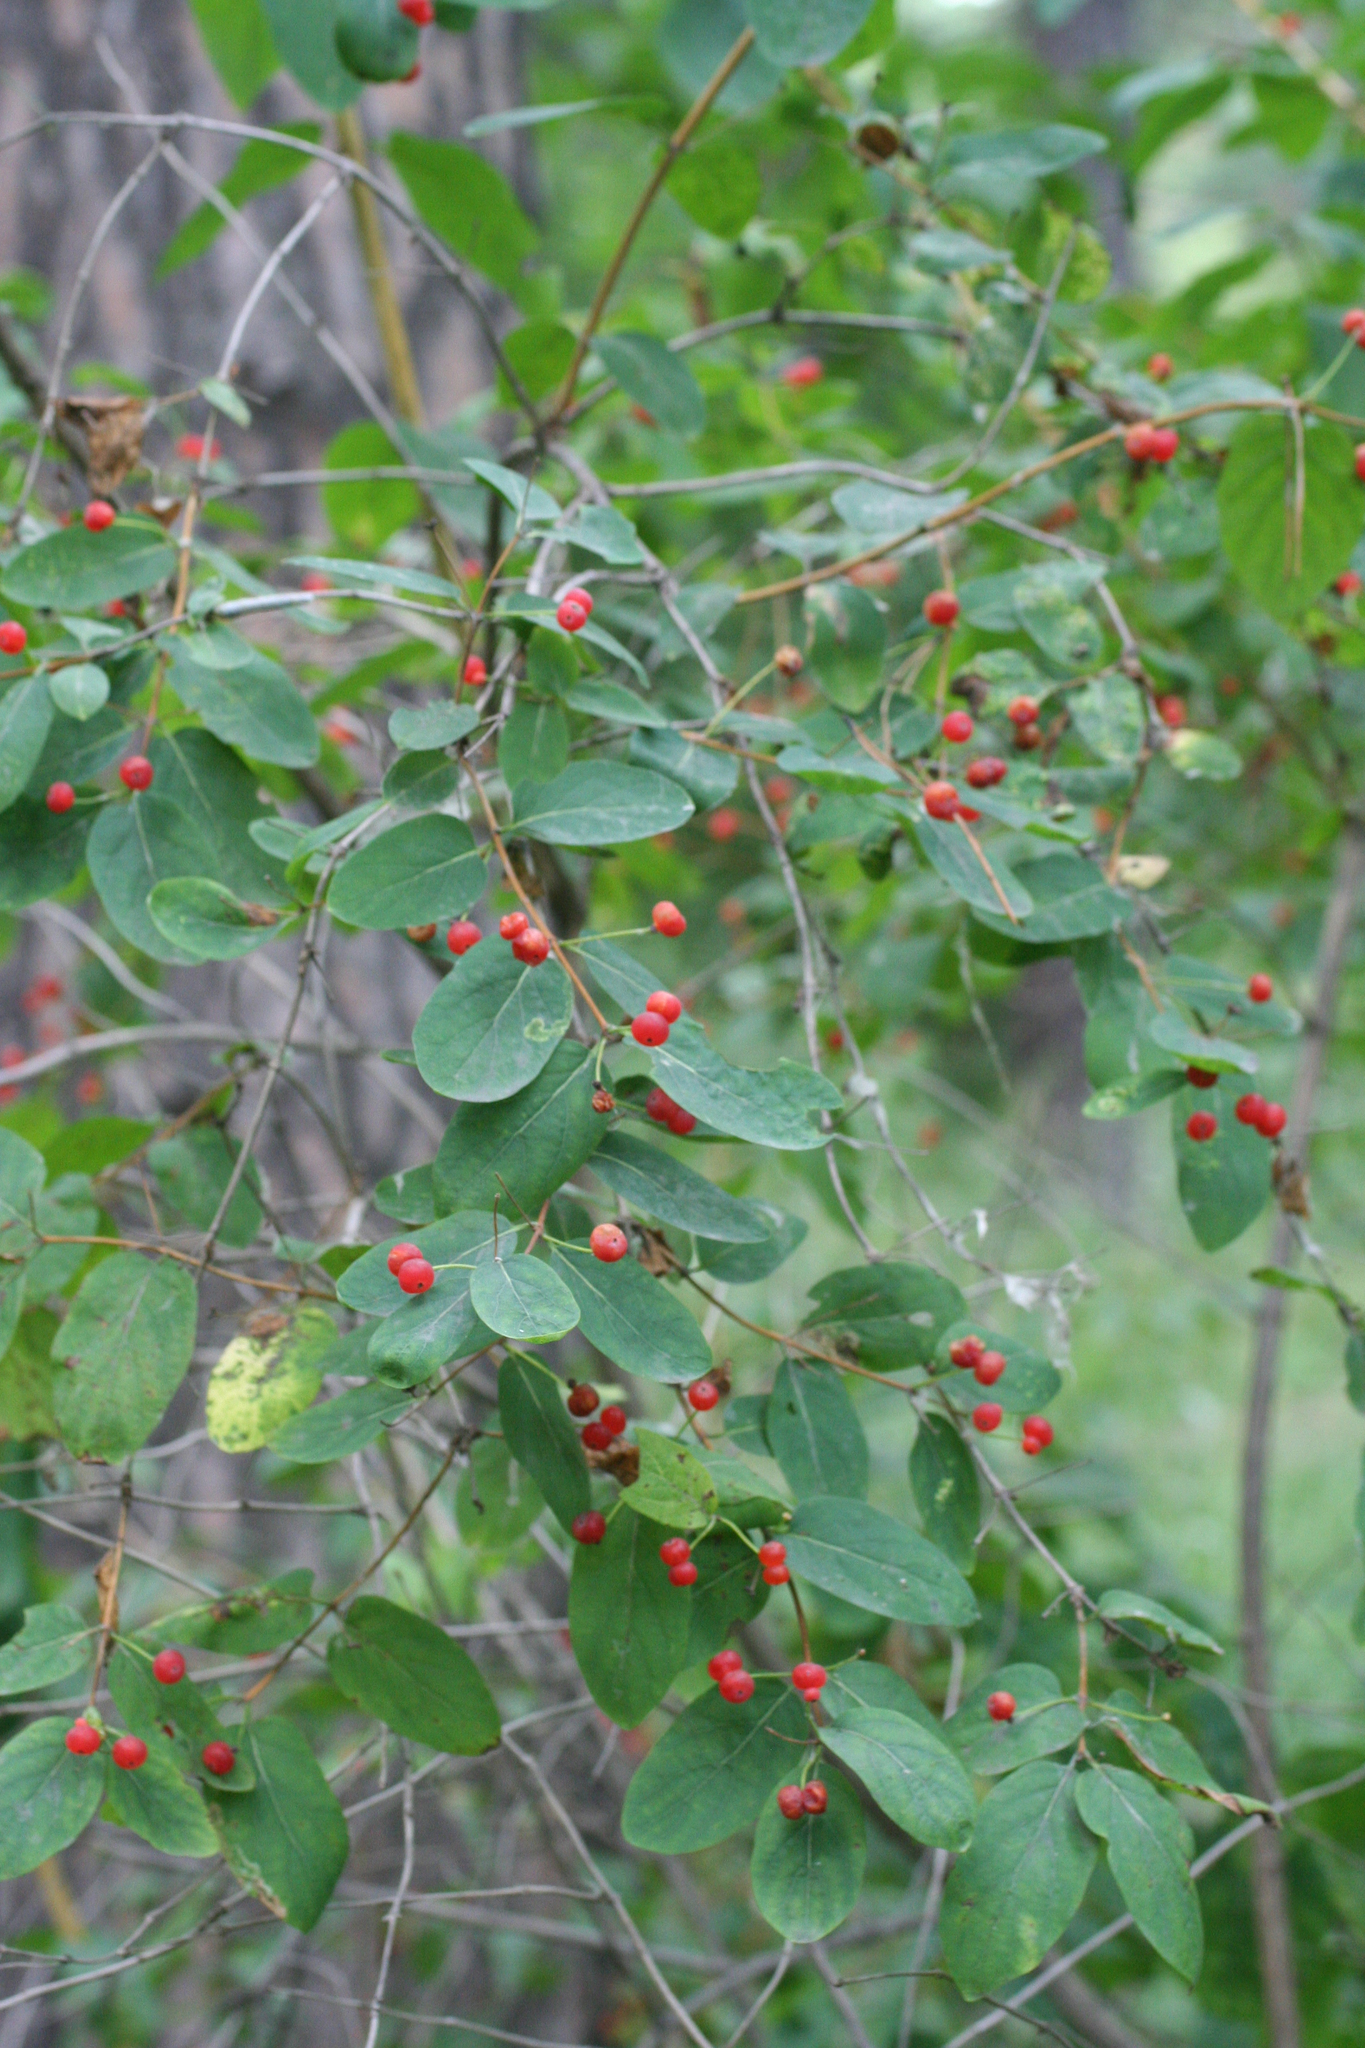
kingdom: Plantae
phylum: Tracheophyta
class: Magnoliopsida
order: Dipsacales
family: Caprifoliaceae
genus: Lonicera
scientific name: Lonicera tatarica
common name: Tatarian honeysuckle
